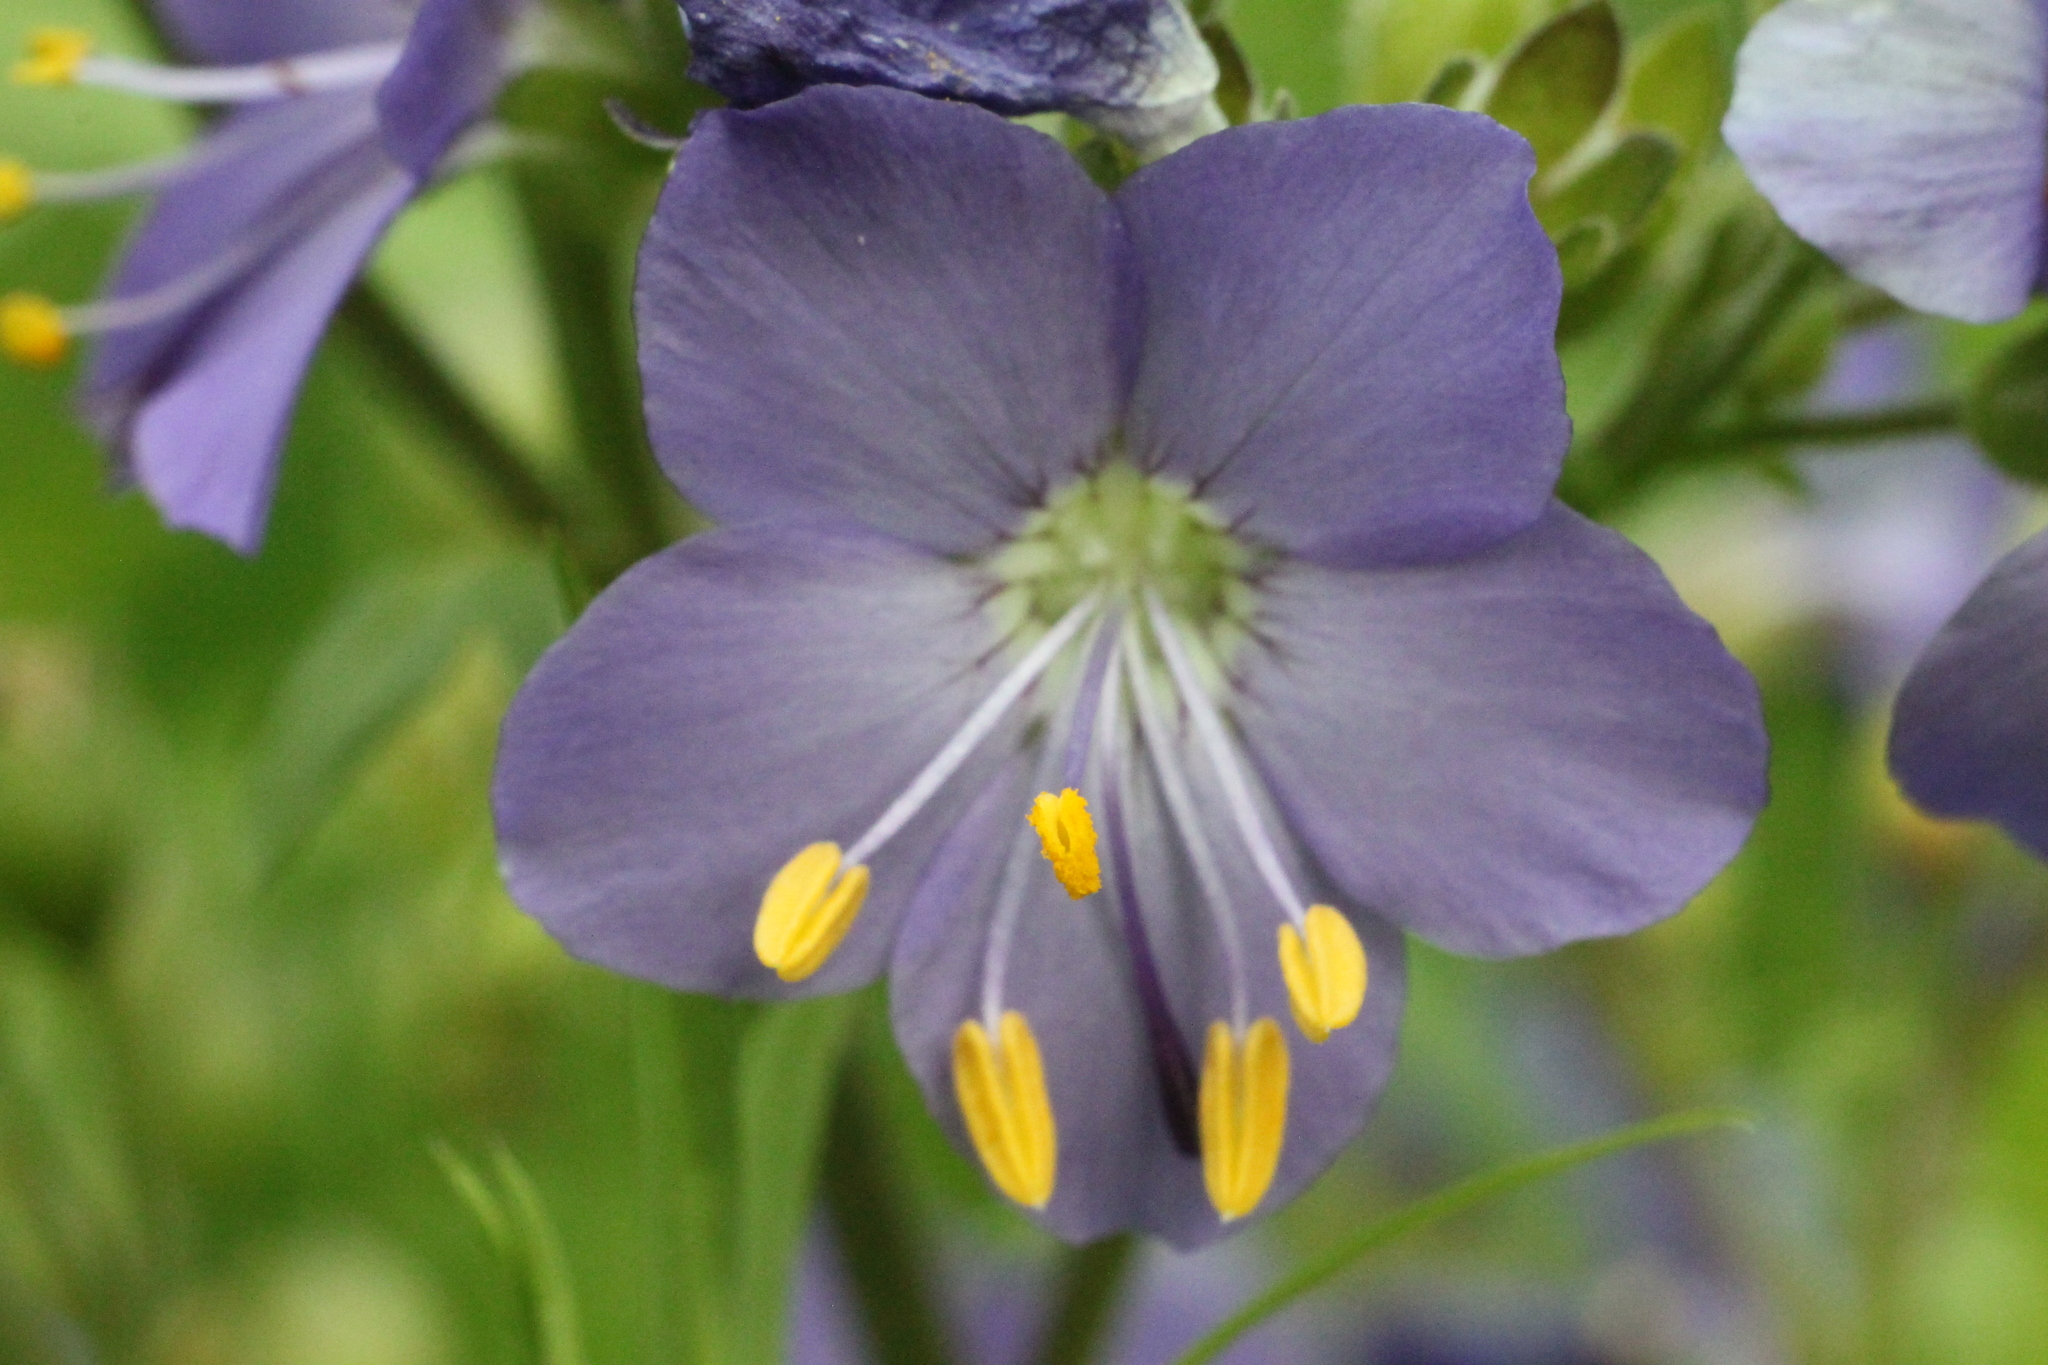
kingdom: Plantae
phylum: Tracheophyta
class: Magnoliopsida
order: Ericales
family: Polemoniaceae
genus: Polemonium
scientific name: Polemonium caeruleum
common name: Jacob's-ladder
